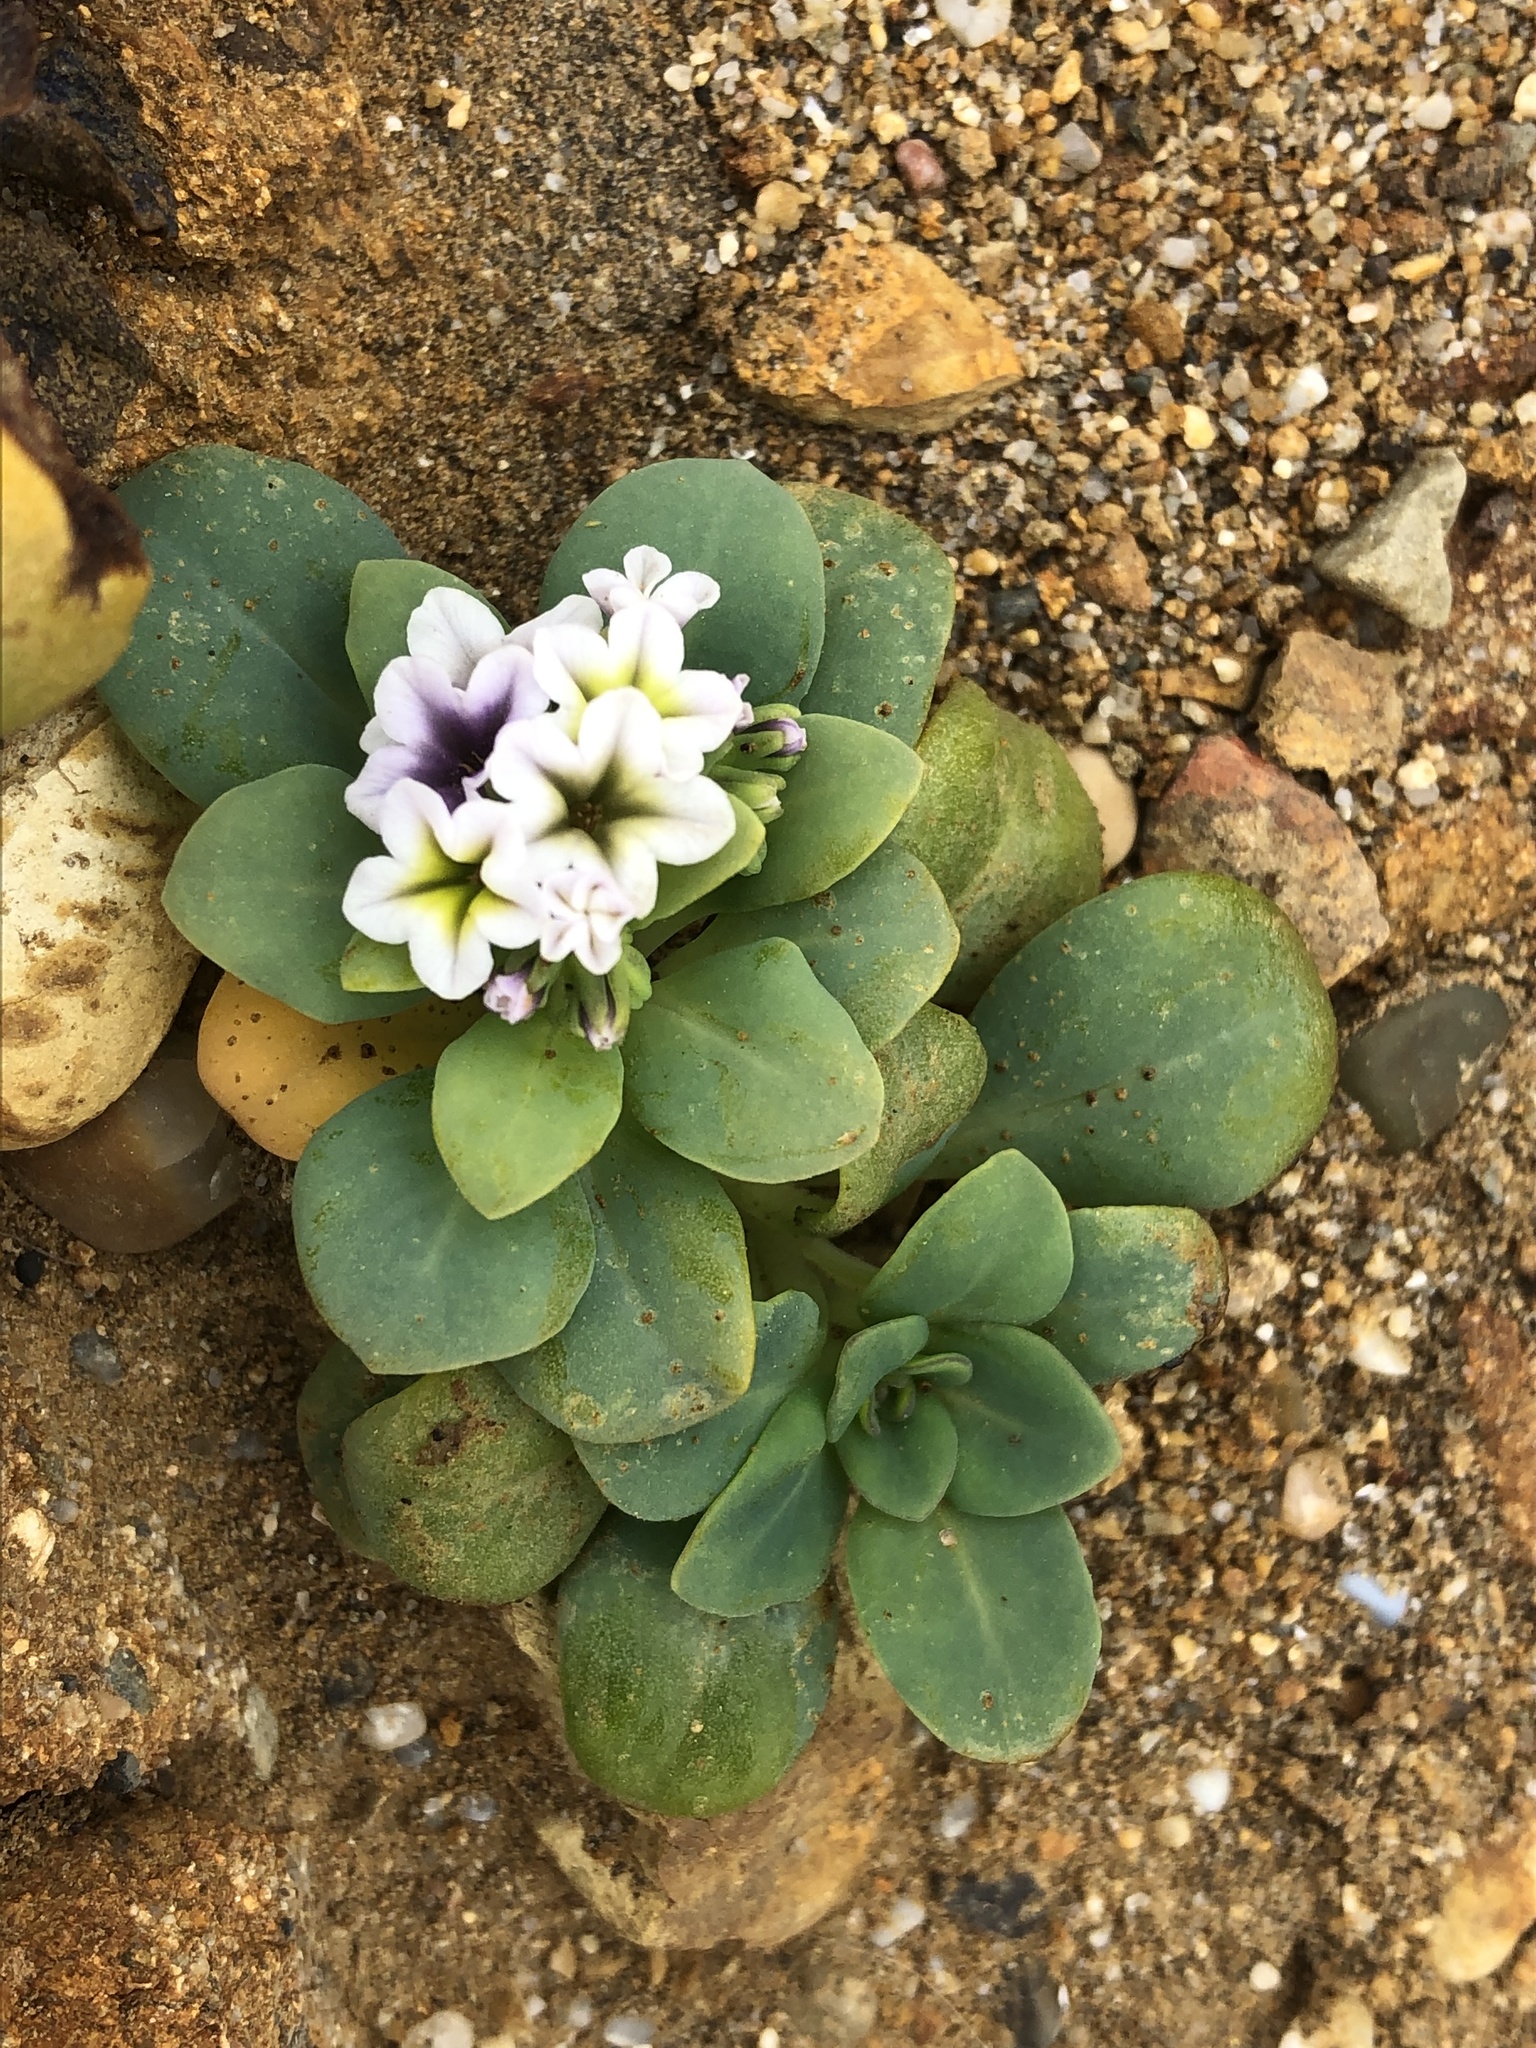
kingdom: Plantae
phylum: Tracheophyta
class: Magnoliopsida
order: Boraginales
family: Heliotropiaceae
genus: Heliotropium
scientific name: Heliotropium curassavicum
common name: Seaside heliotrope
